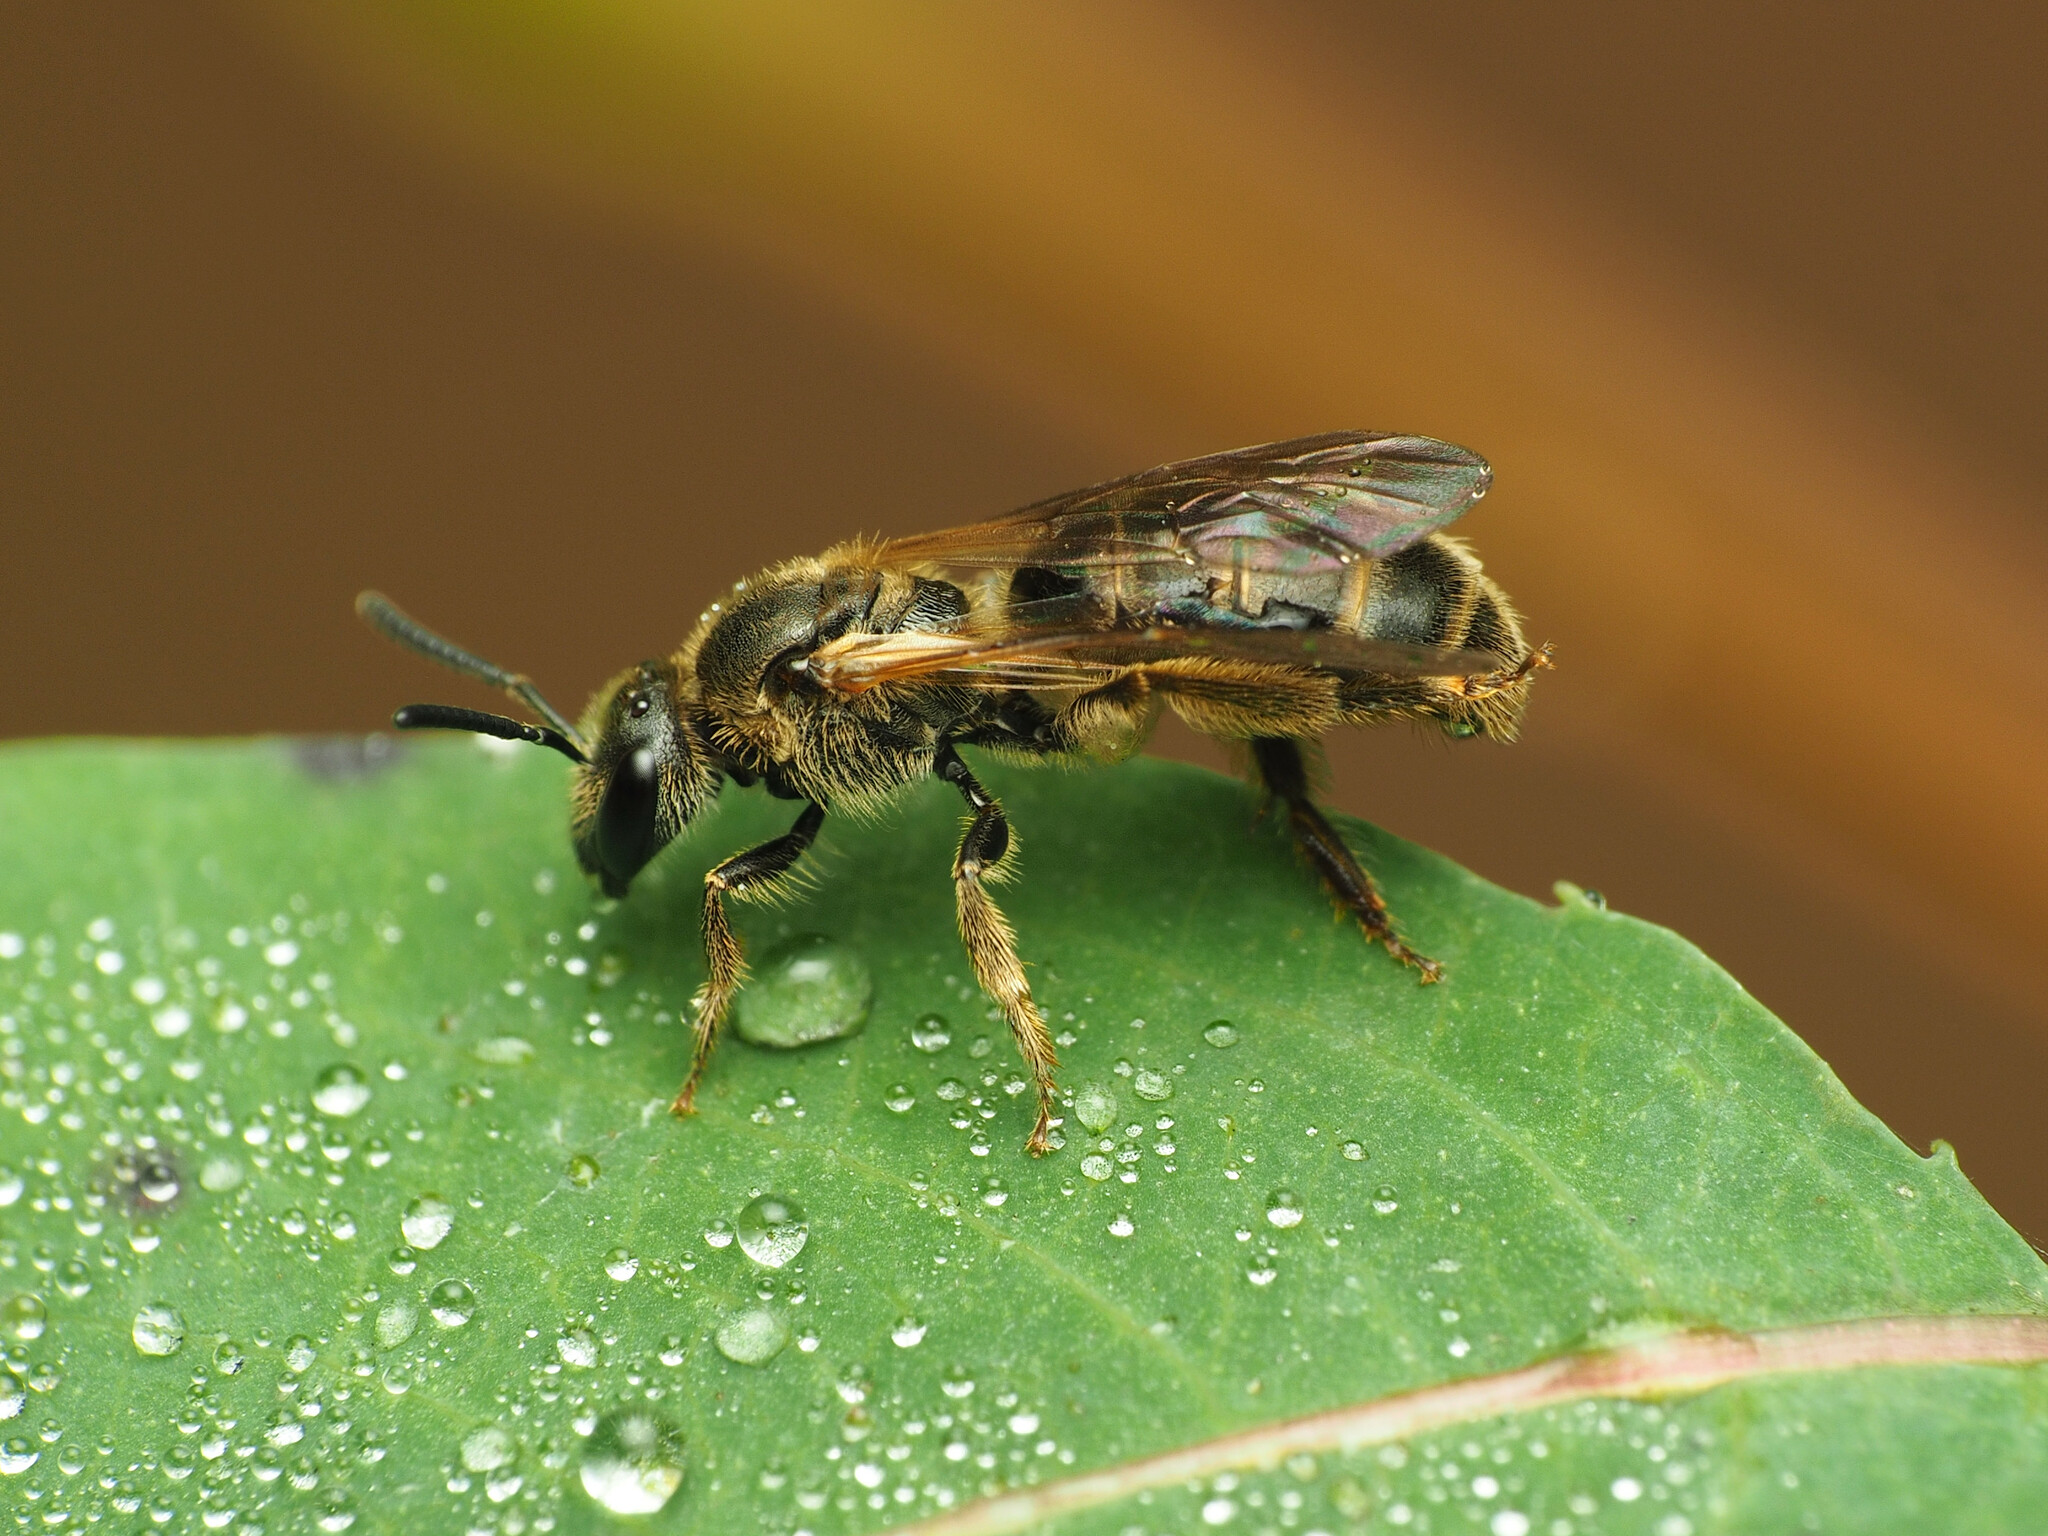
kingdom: Animalia
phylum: Arthropoda
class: Insecta
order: Hymenoptera
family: Halictidae
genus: Lasioglossum
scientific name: Lasioglossum quebecense
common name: Quebec sweat bee
